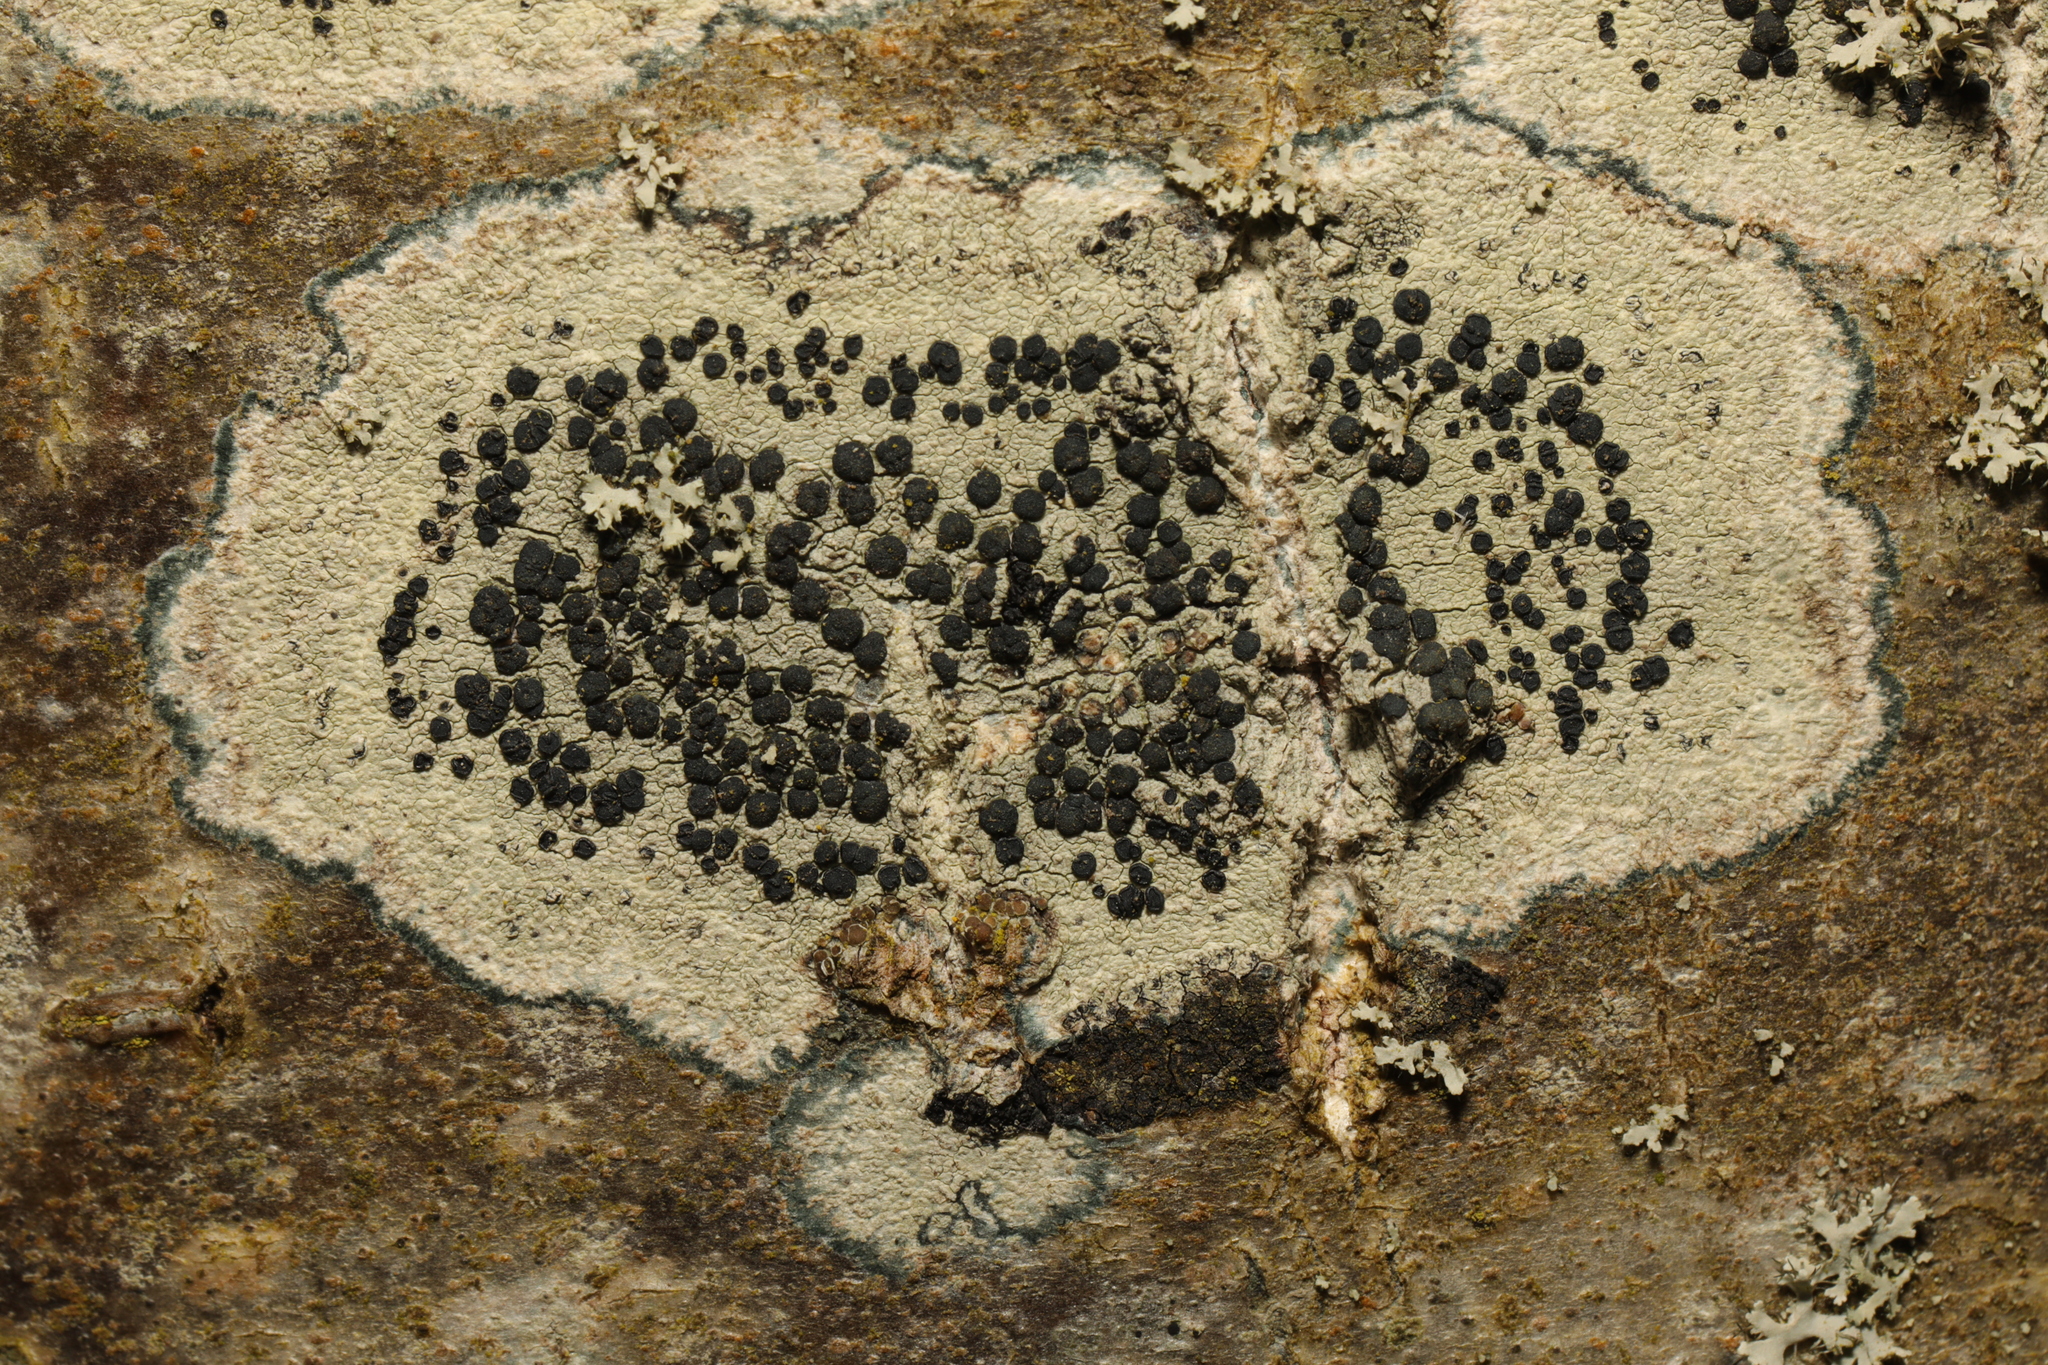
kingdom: Fungi
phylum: Ascomycota
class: Lecanoromycetes
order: Lecanorales
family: Lecanoraceae
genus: Lecidella
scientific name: Lecidella elaeochroma
